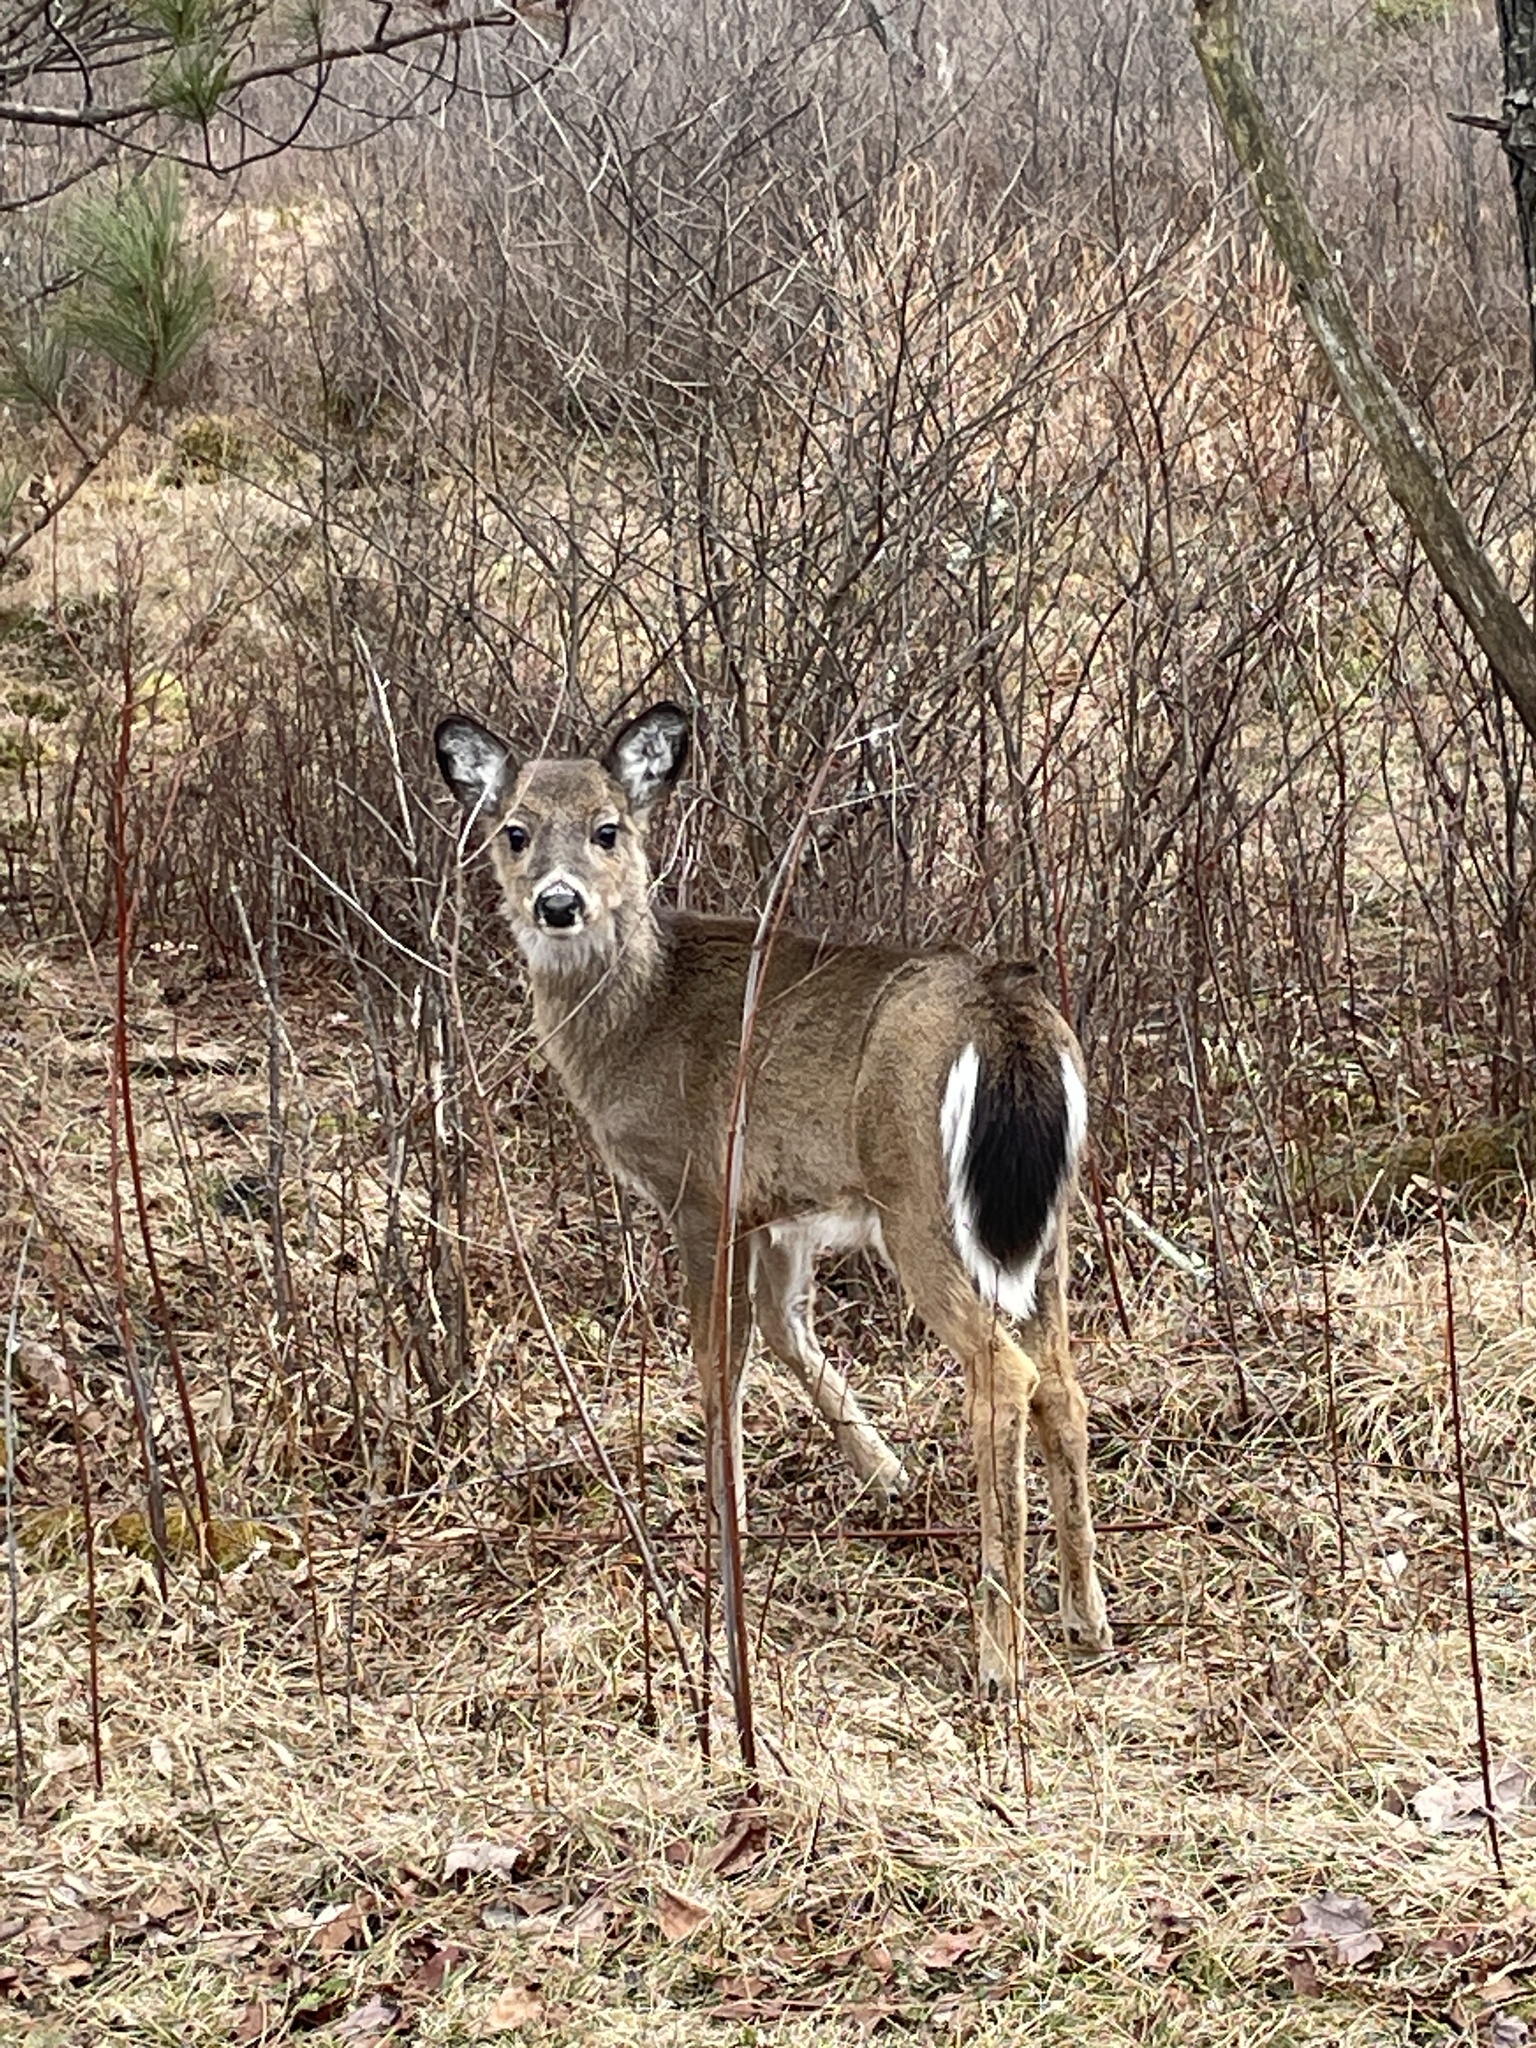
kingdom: Animalia
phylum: Chordata
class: Mammalia
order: Artiodactyla
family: Cervidae
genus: Odocoileus
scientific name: Odocoileus virginianus
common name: White-tailed deer
